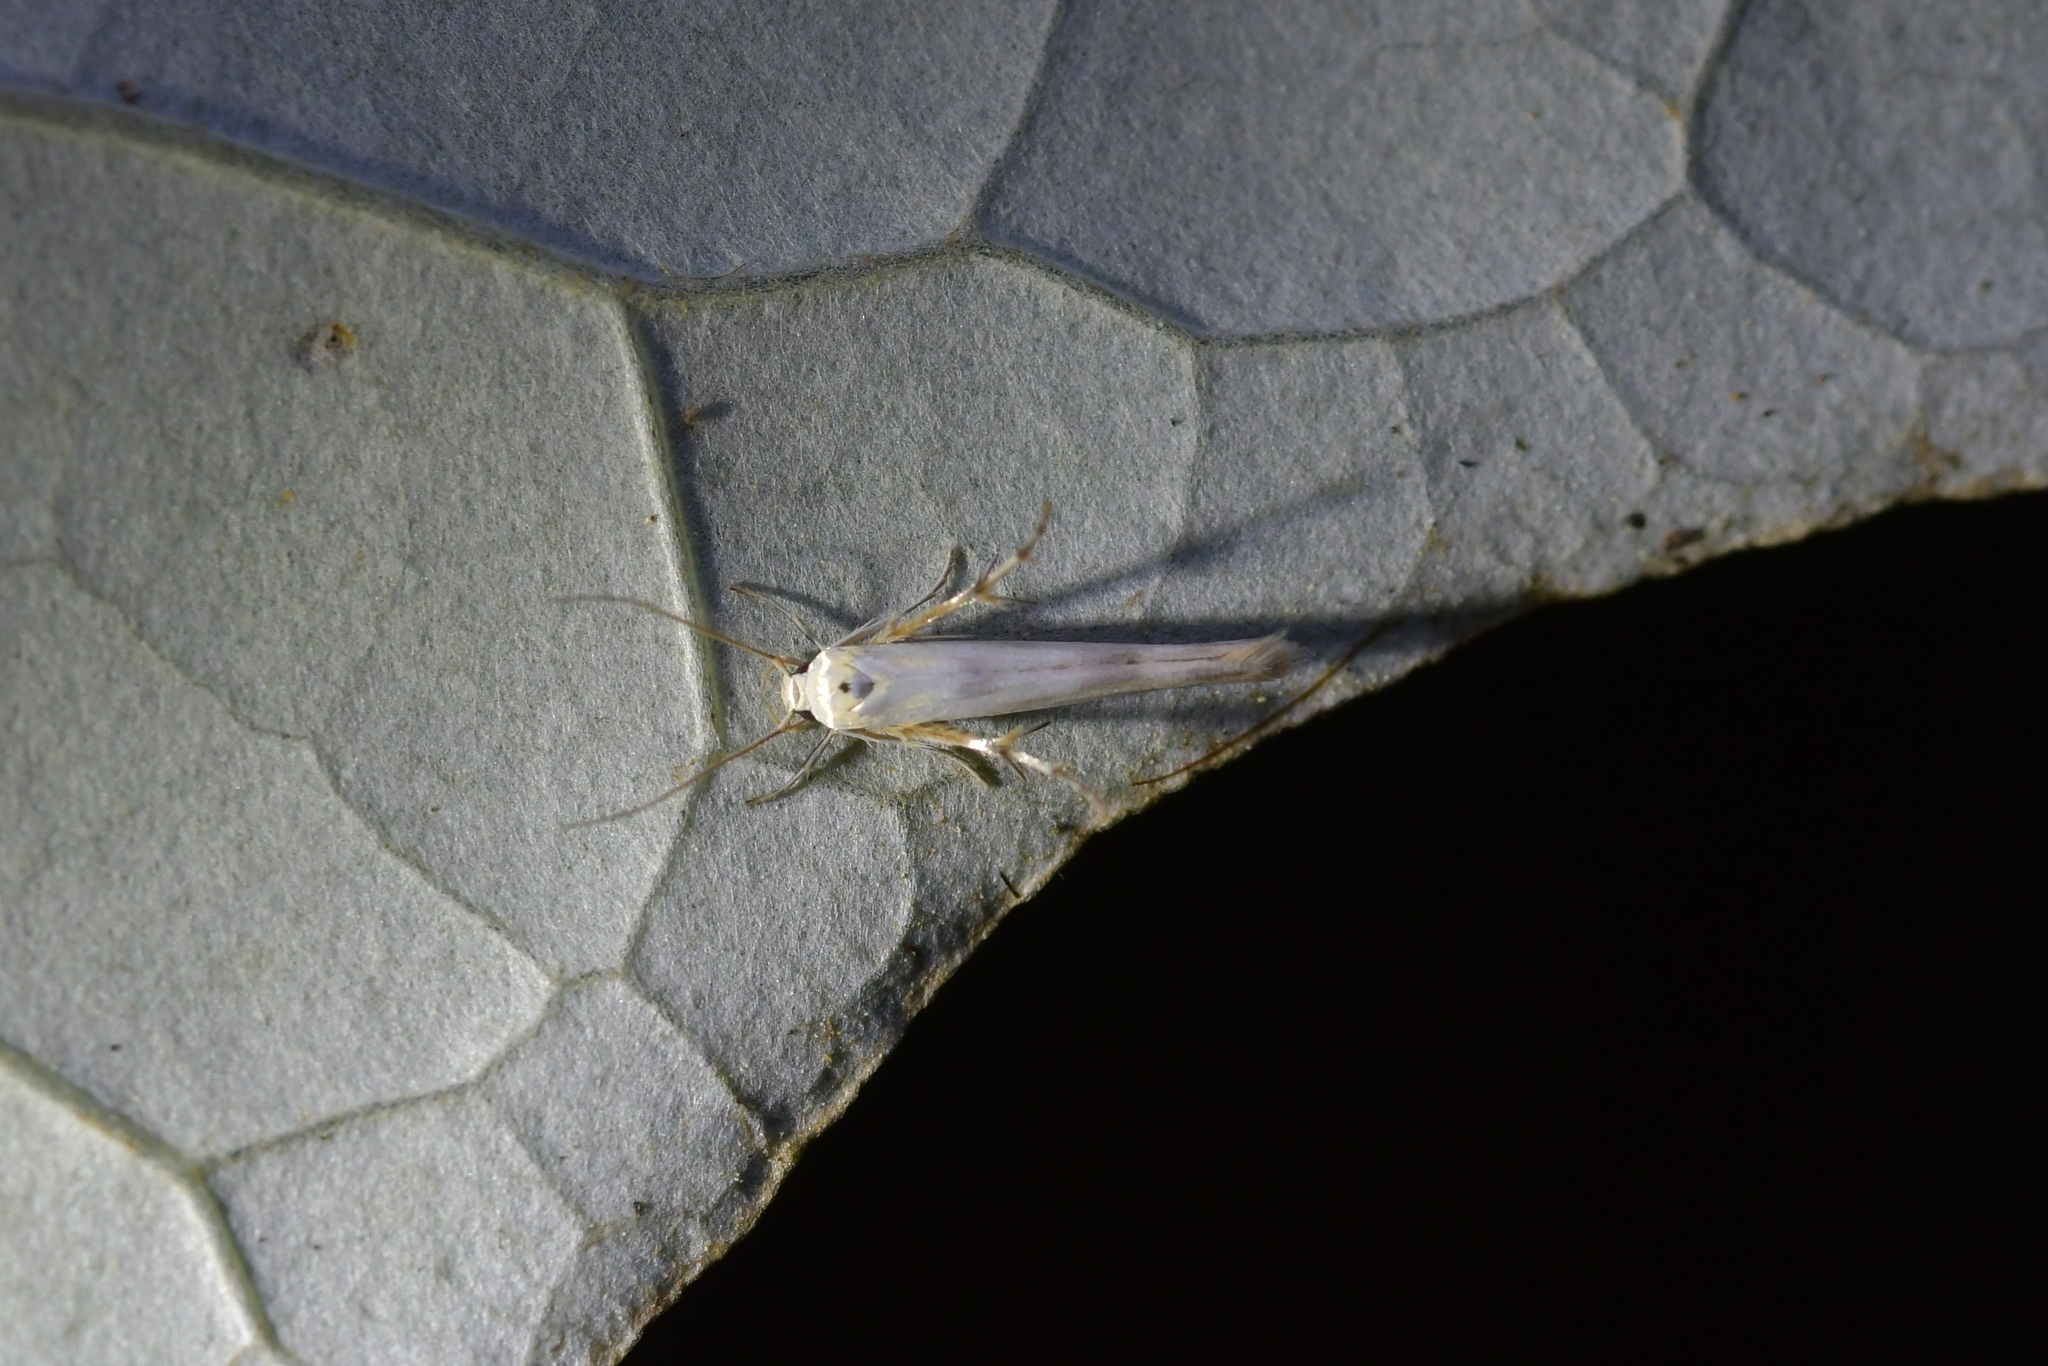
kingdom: Animalia
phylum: Arthropoda
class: Insecta
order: Lepidoptera
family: Stathmopodidae
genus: Stathmopoda
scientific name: Stathmopoda horticola
